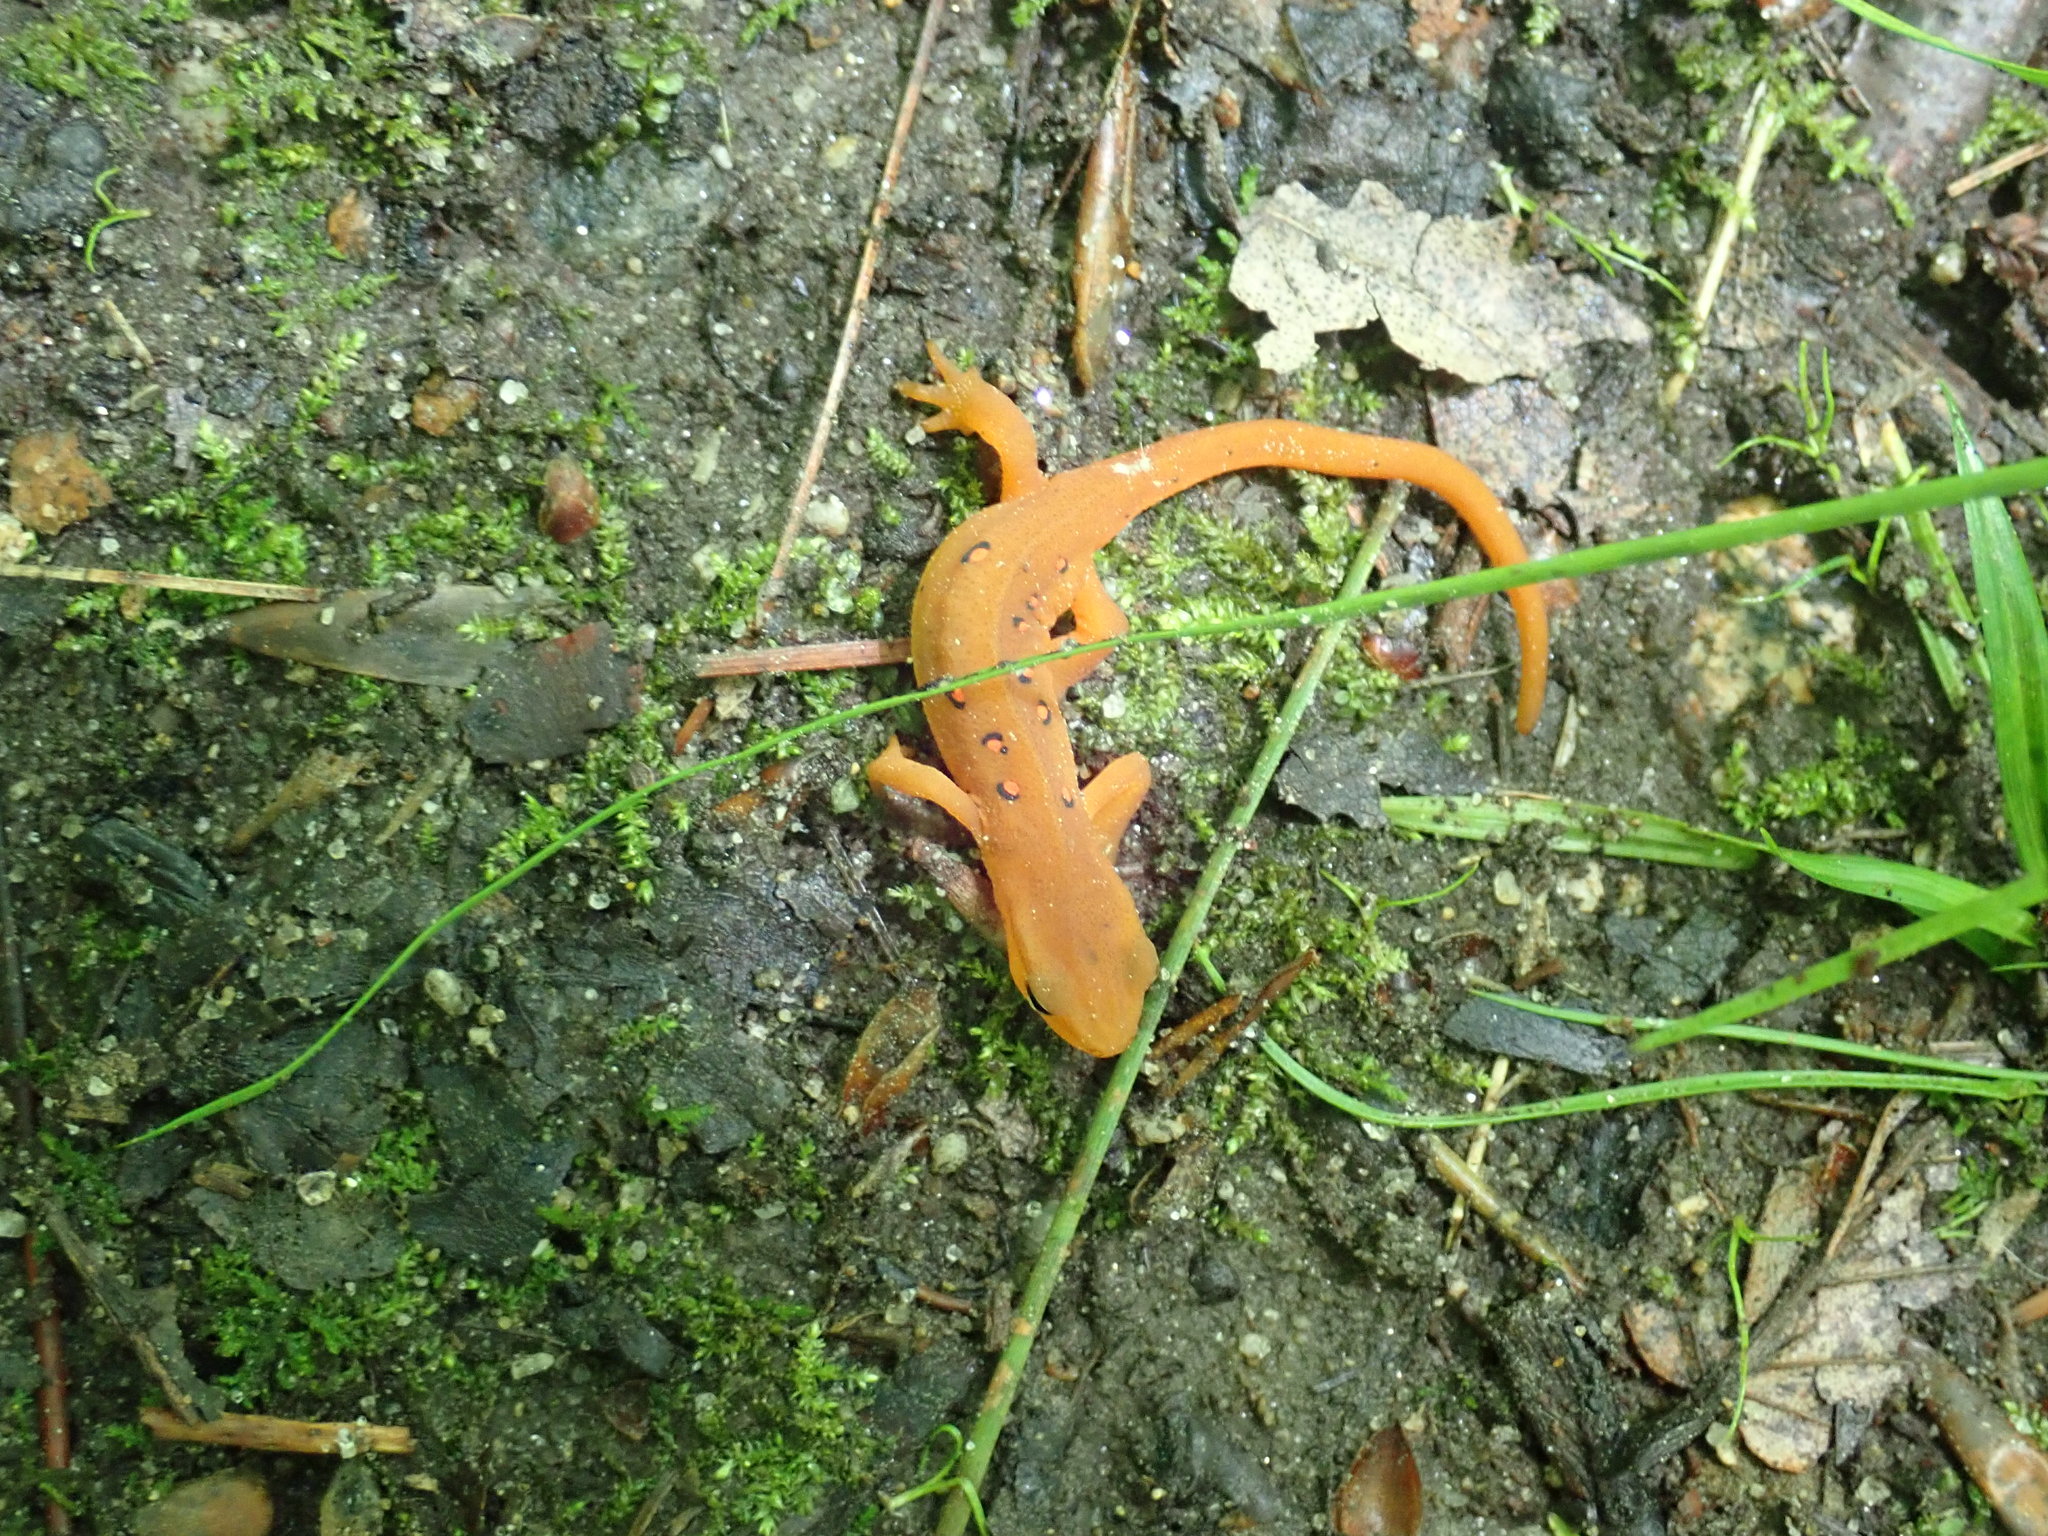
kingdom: Animalia
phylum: Chordata
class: Amphibia
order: Caudata
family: Salamandridae
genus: Notophthalmus
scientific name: Notophthalmus viridescens
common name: Eastern newt
